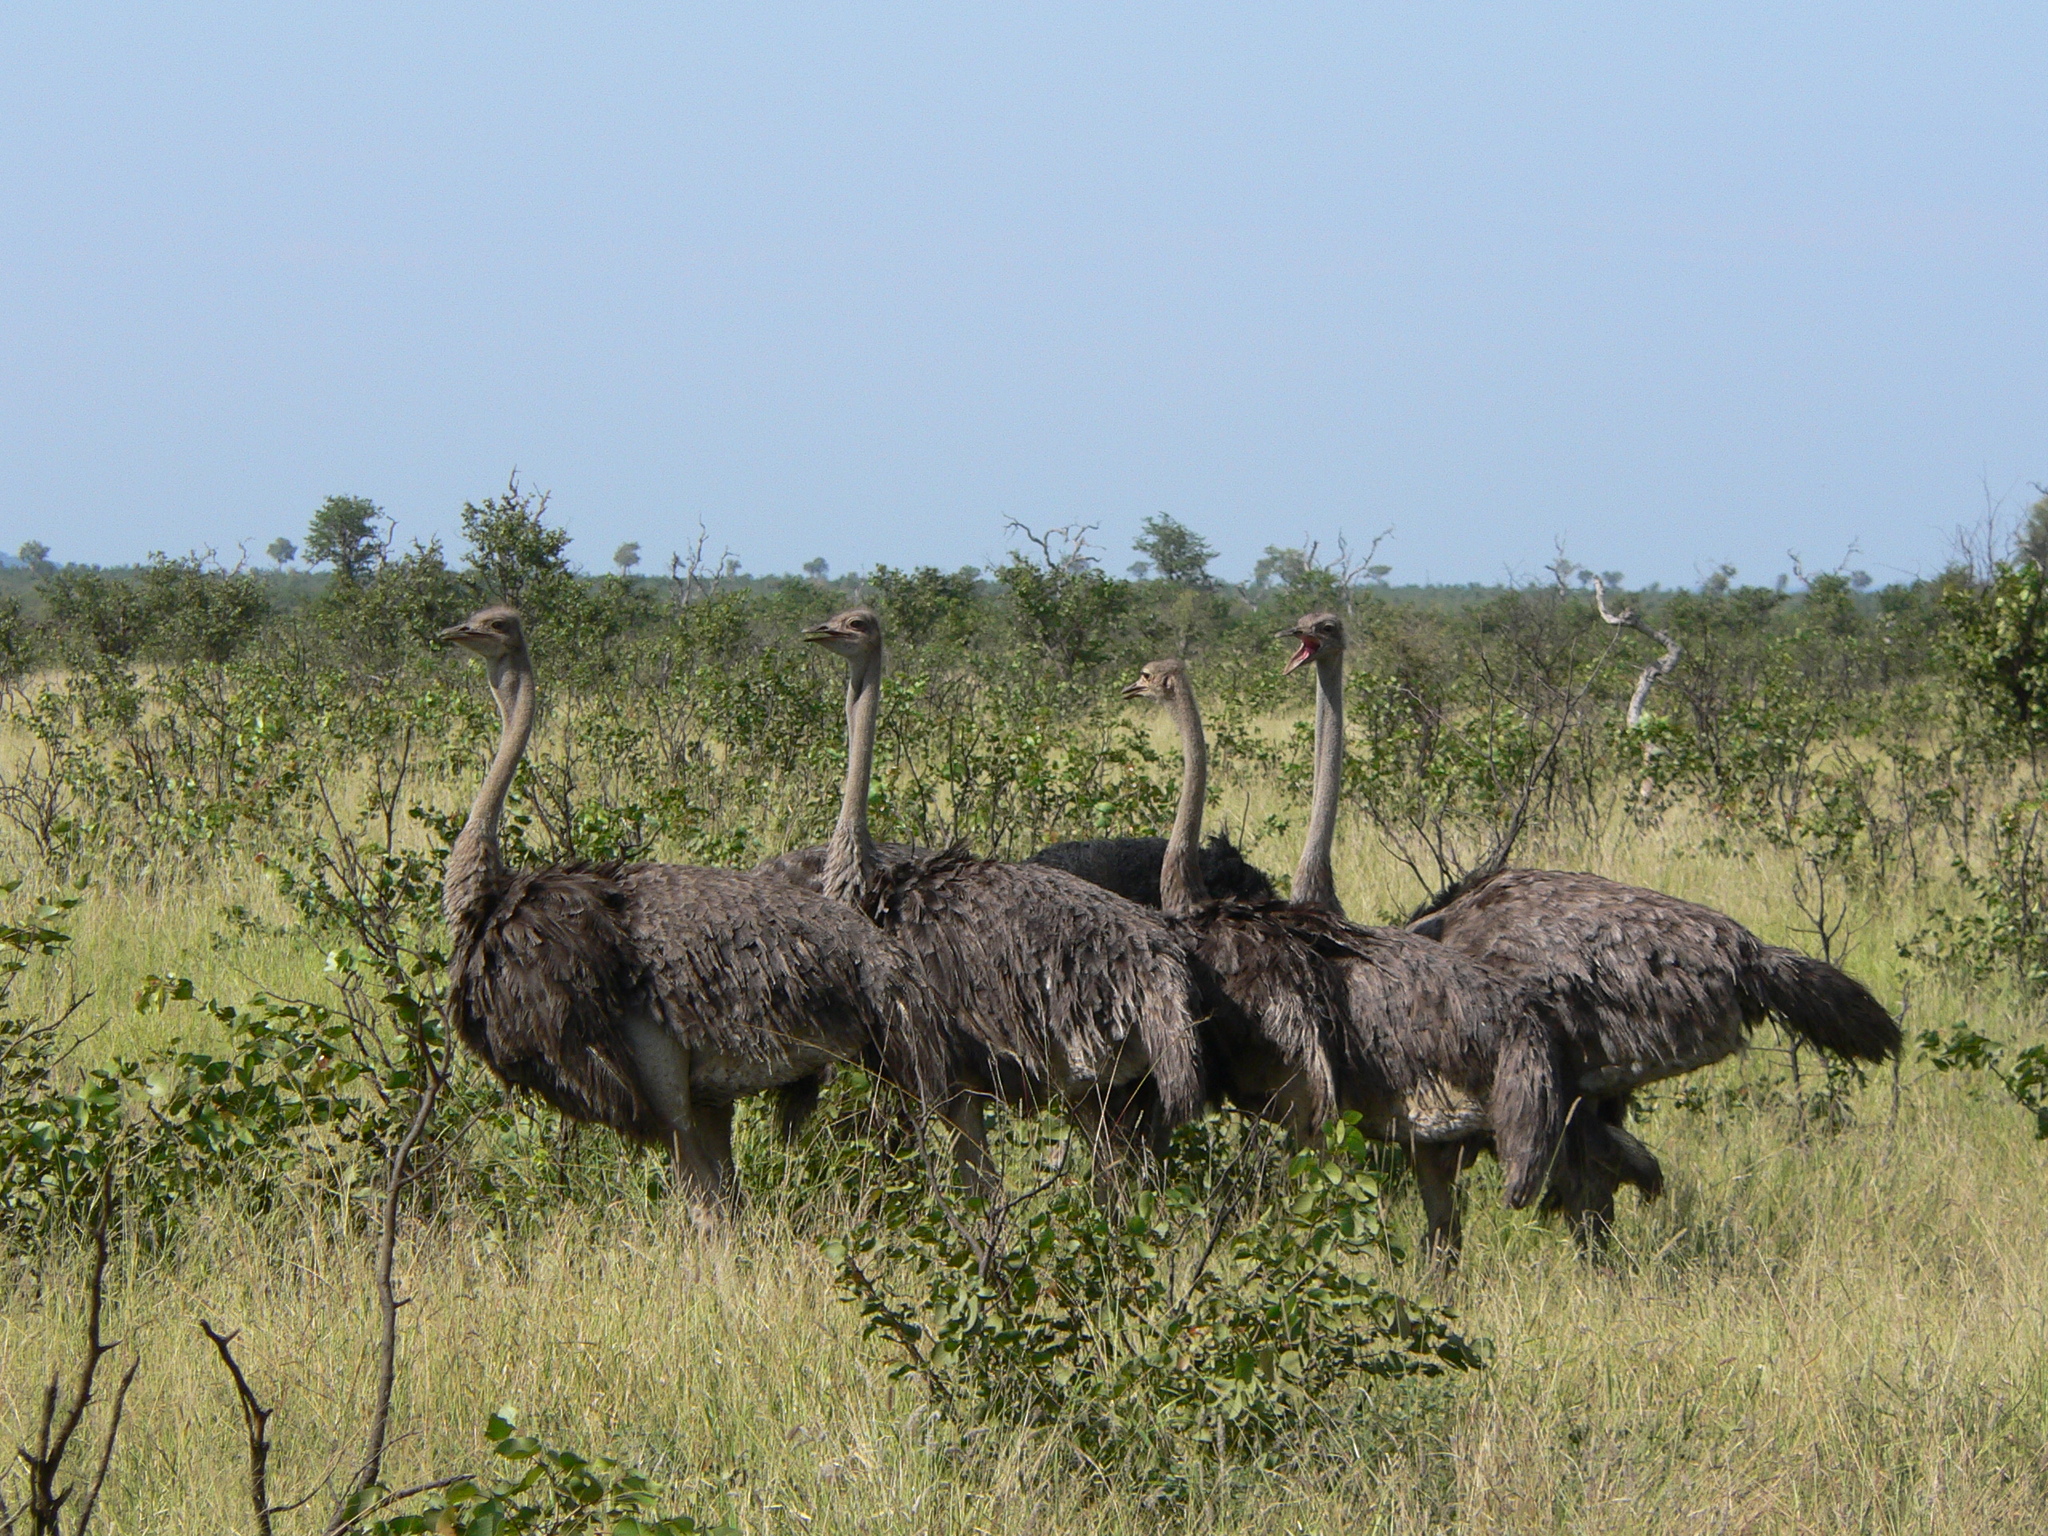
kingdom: Animalia
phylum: Chordata
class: Aves
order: Struthioniformes
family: Struthionidae
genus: Struthio
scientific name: Struthio camelus
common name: Common ostrich
